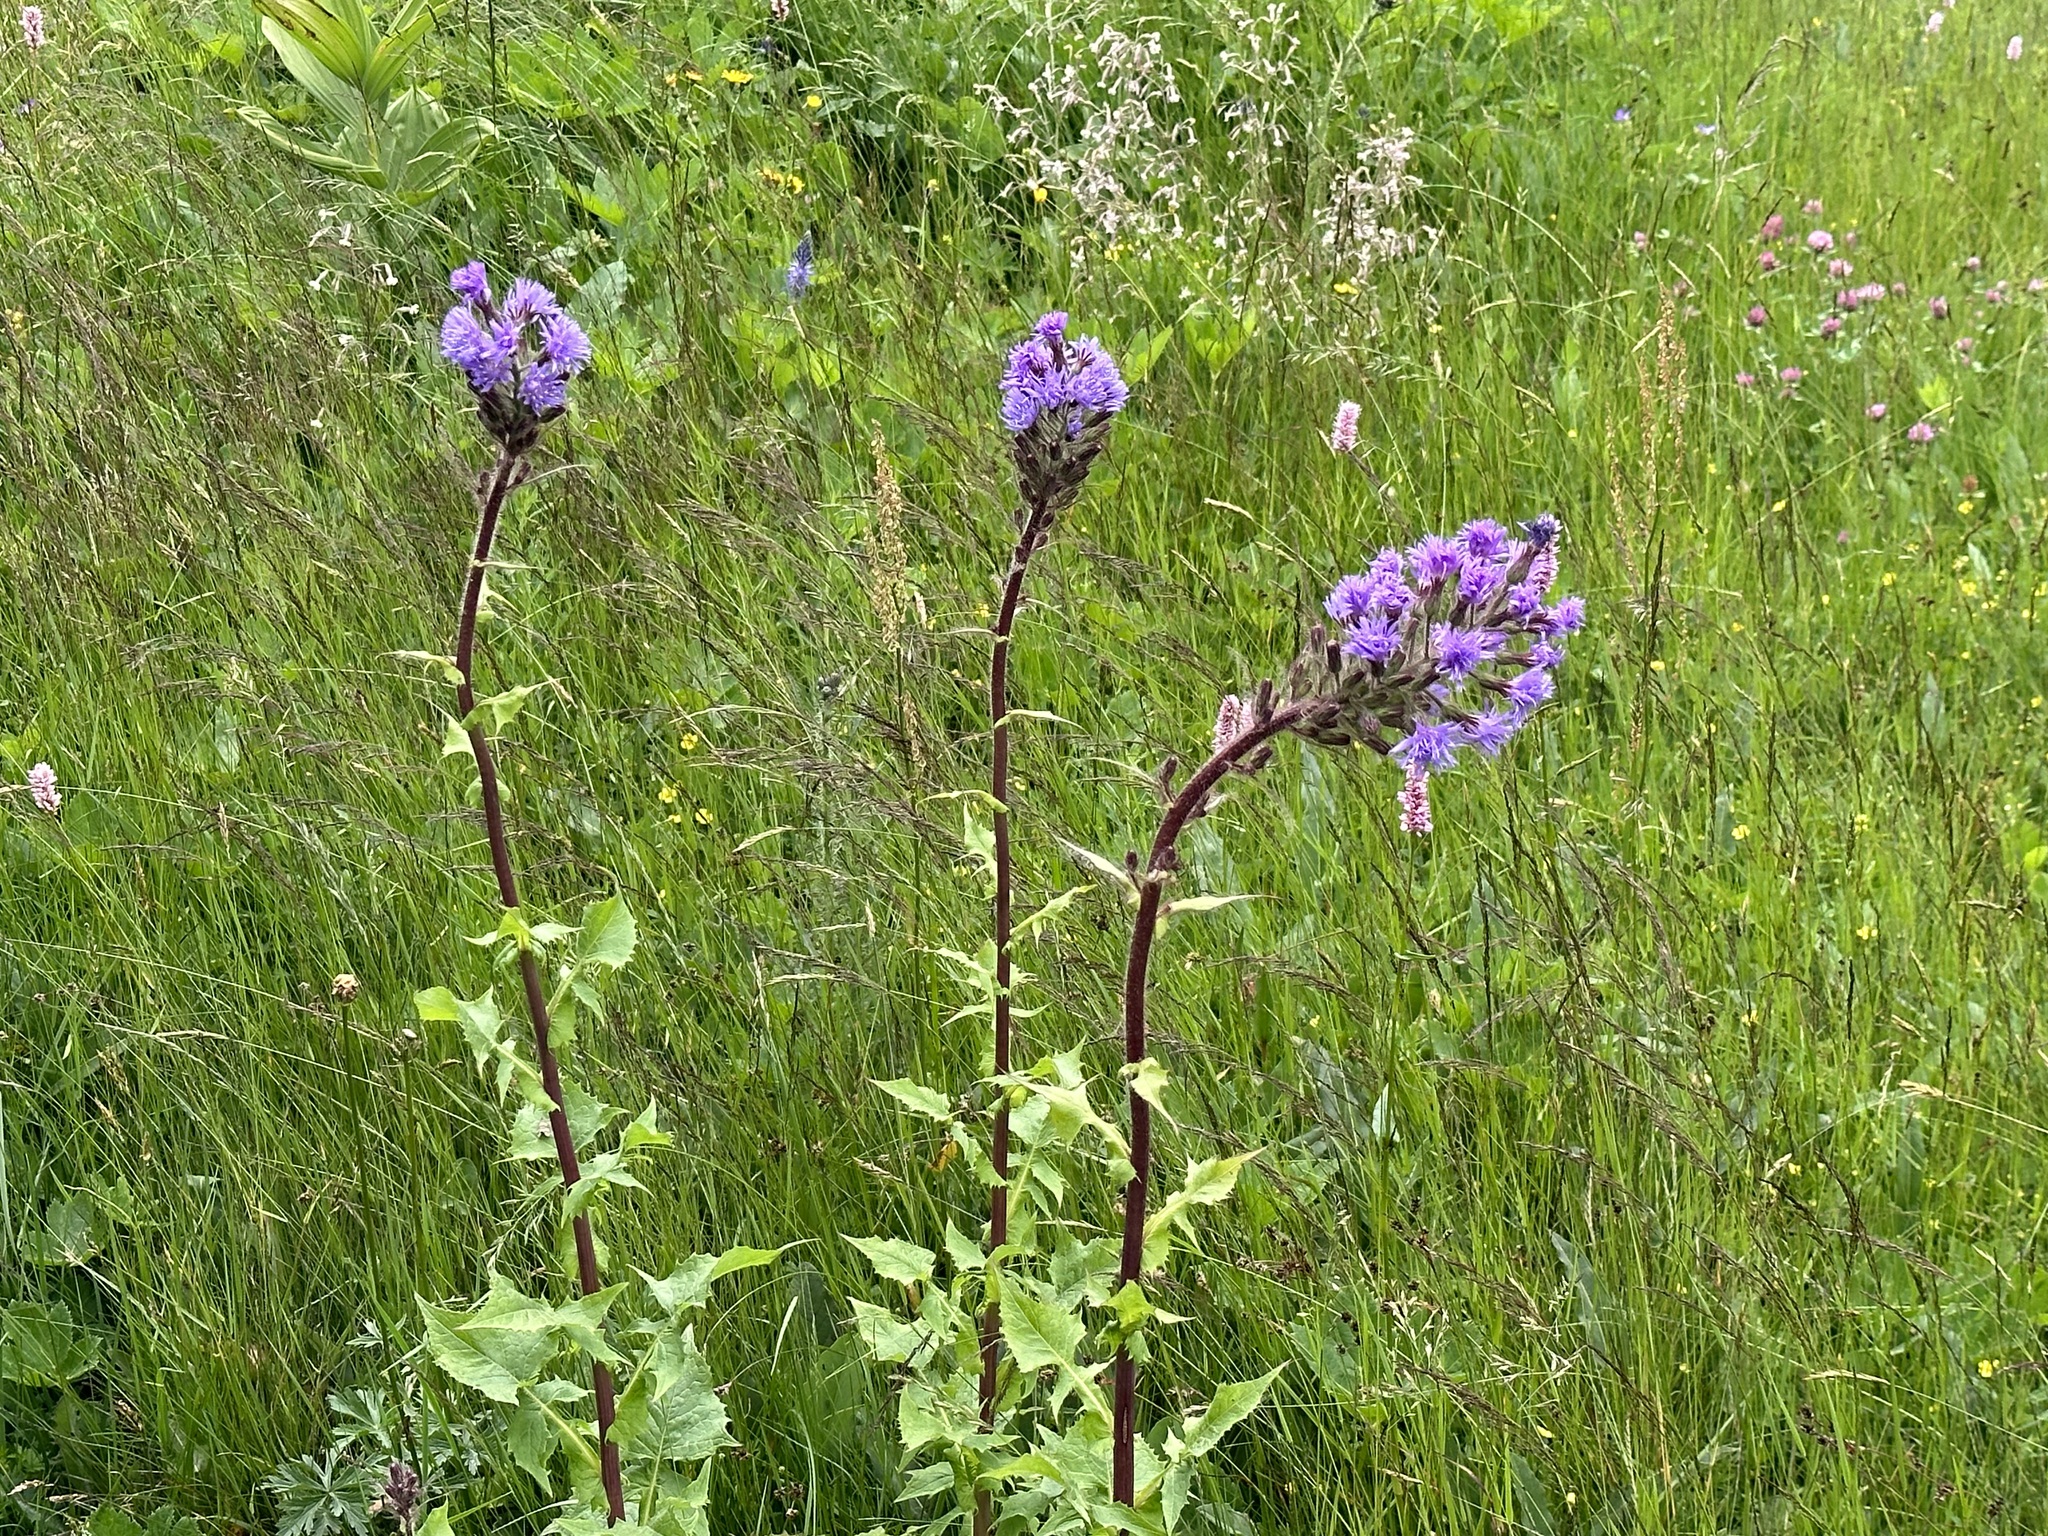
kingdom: Plantae
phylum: Tracheophyta
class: Magnoliopsida
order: Asterales
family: Asteraceae
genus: Cicerbita
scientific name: Cicerbita alpina
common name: Alpine blue-sow-thistle
